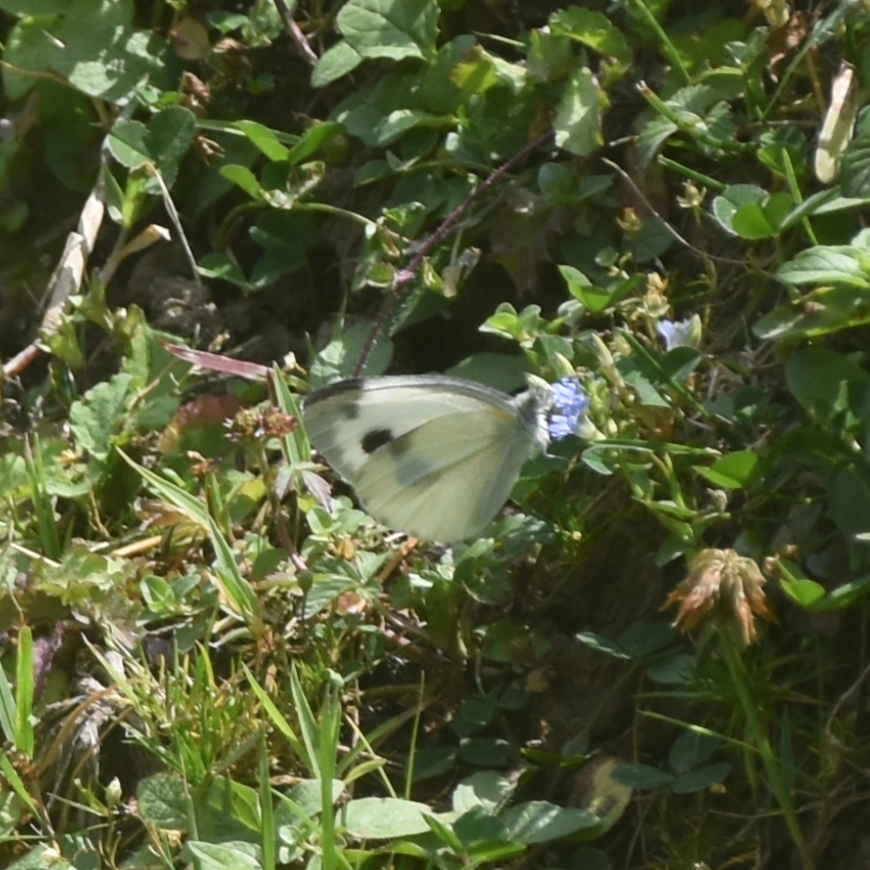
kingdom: Animalia
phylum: Arthropoda
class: Insecta
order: Lepidoptera
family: Pieridae
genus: Pieris
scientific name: Pieris canidia
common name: Indian cabbage white
